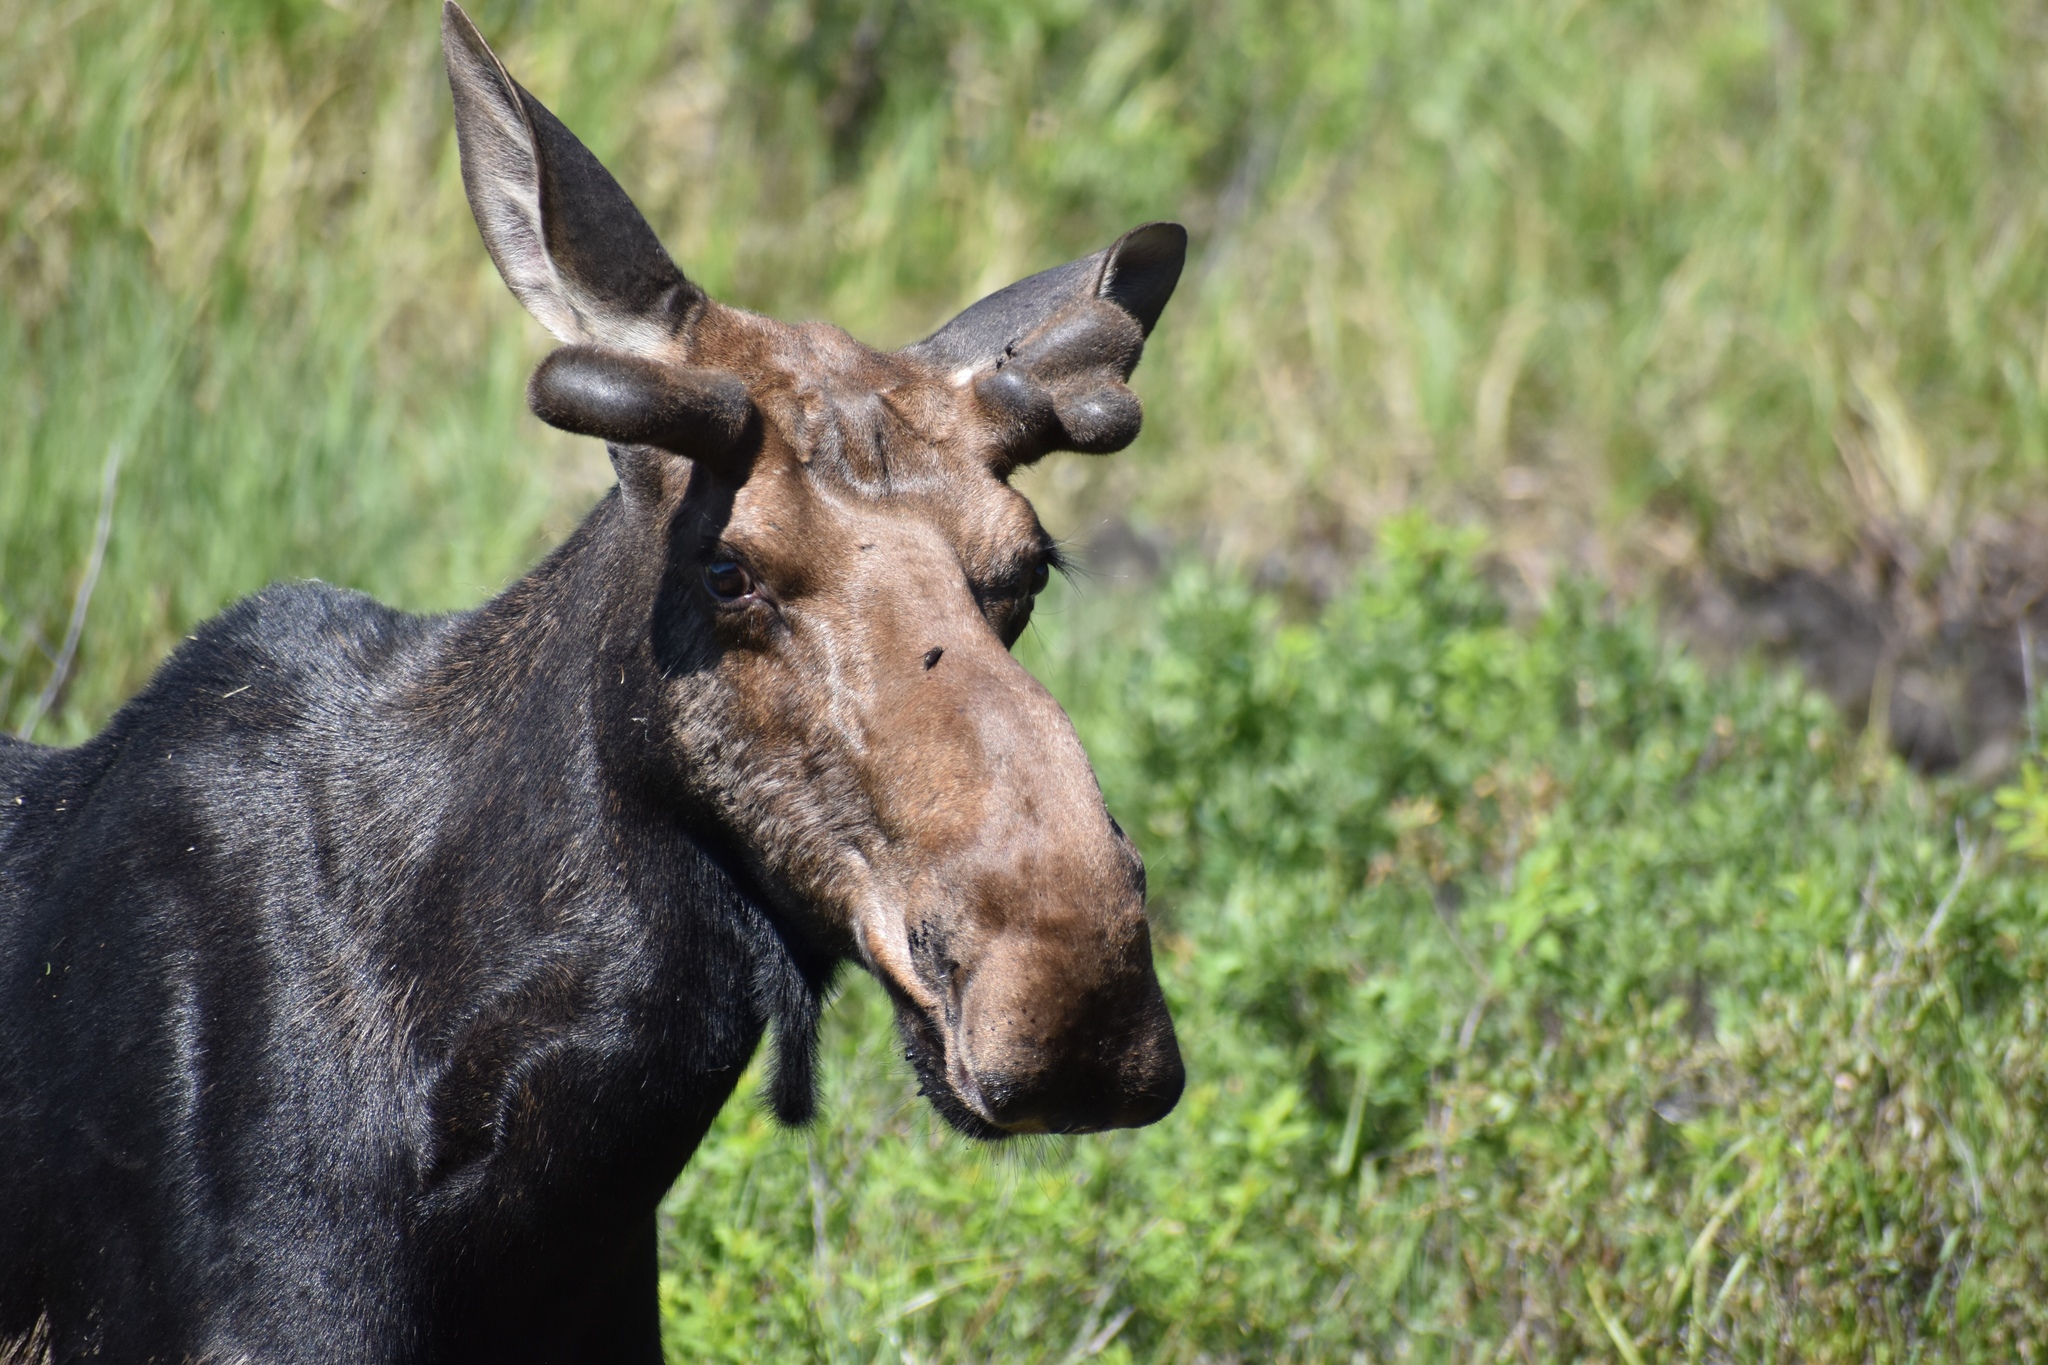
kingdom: Animalia
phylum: Chordata
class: Mammalia
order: Artiodactyla
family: Cervidae
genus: Alces
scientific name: Alces alces
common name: Moose
